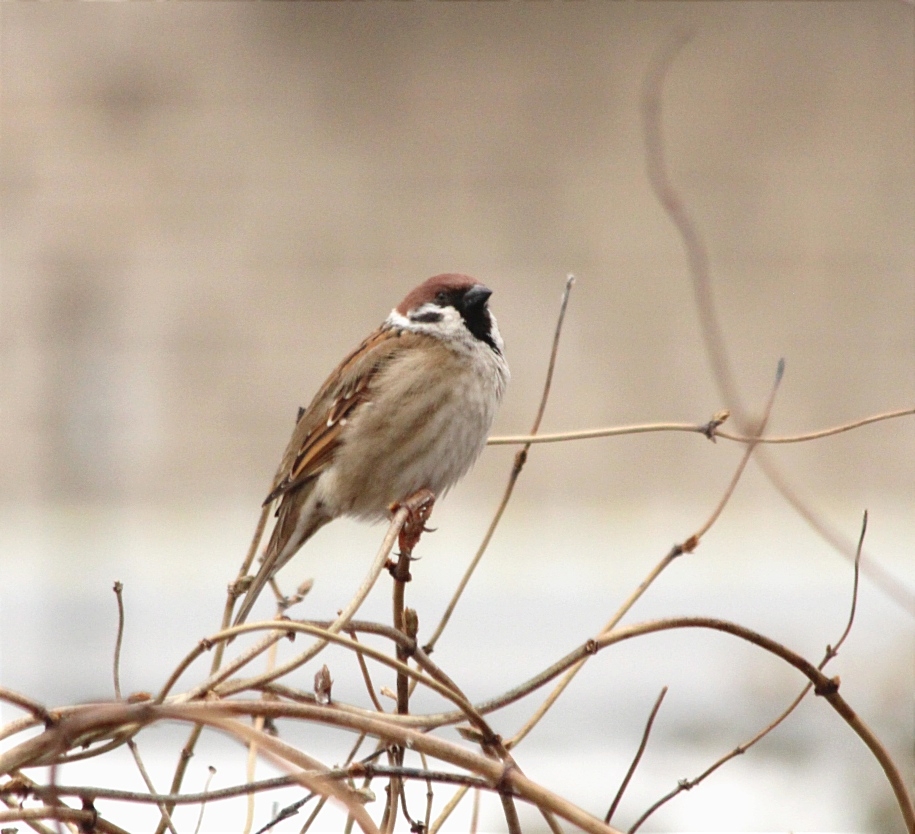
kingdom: Animalia
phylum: Chordata
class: Aves
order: Passeriformes
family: Passeridae
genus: Passer
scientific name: Passer montanus
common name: Eurasian tree sparrow
